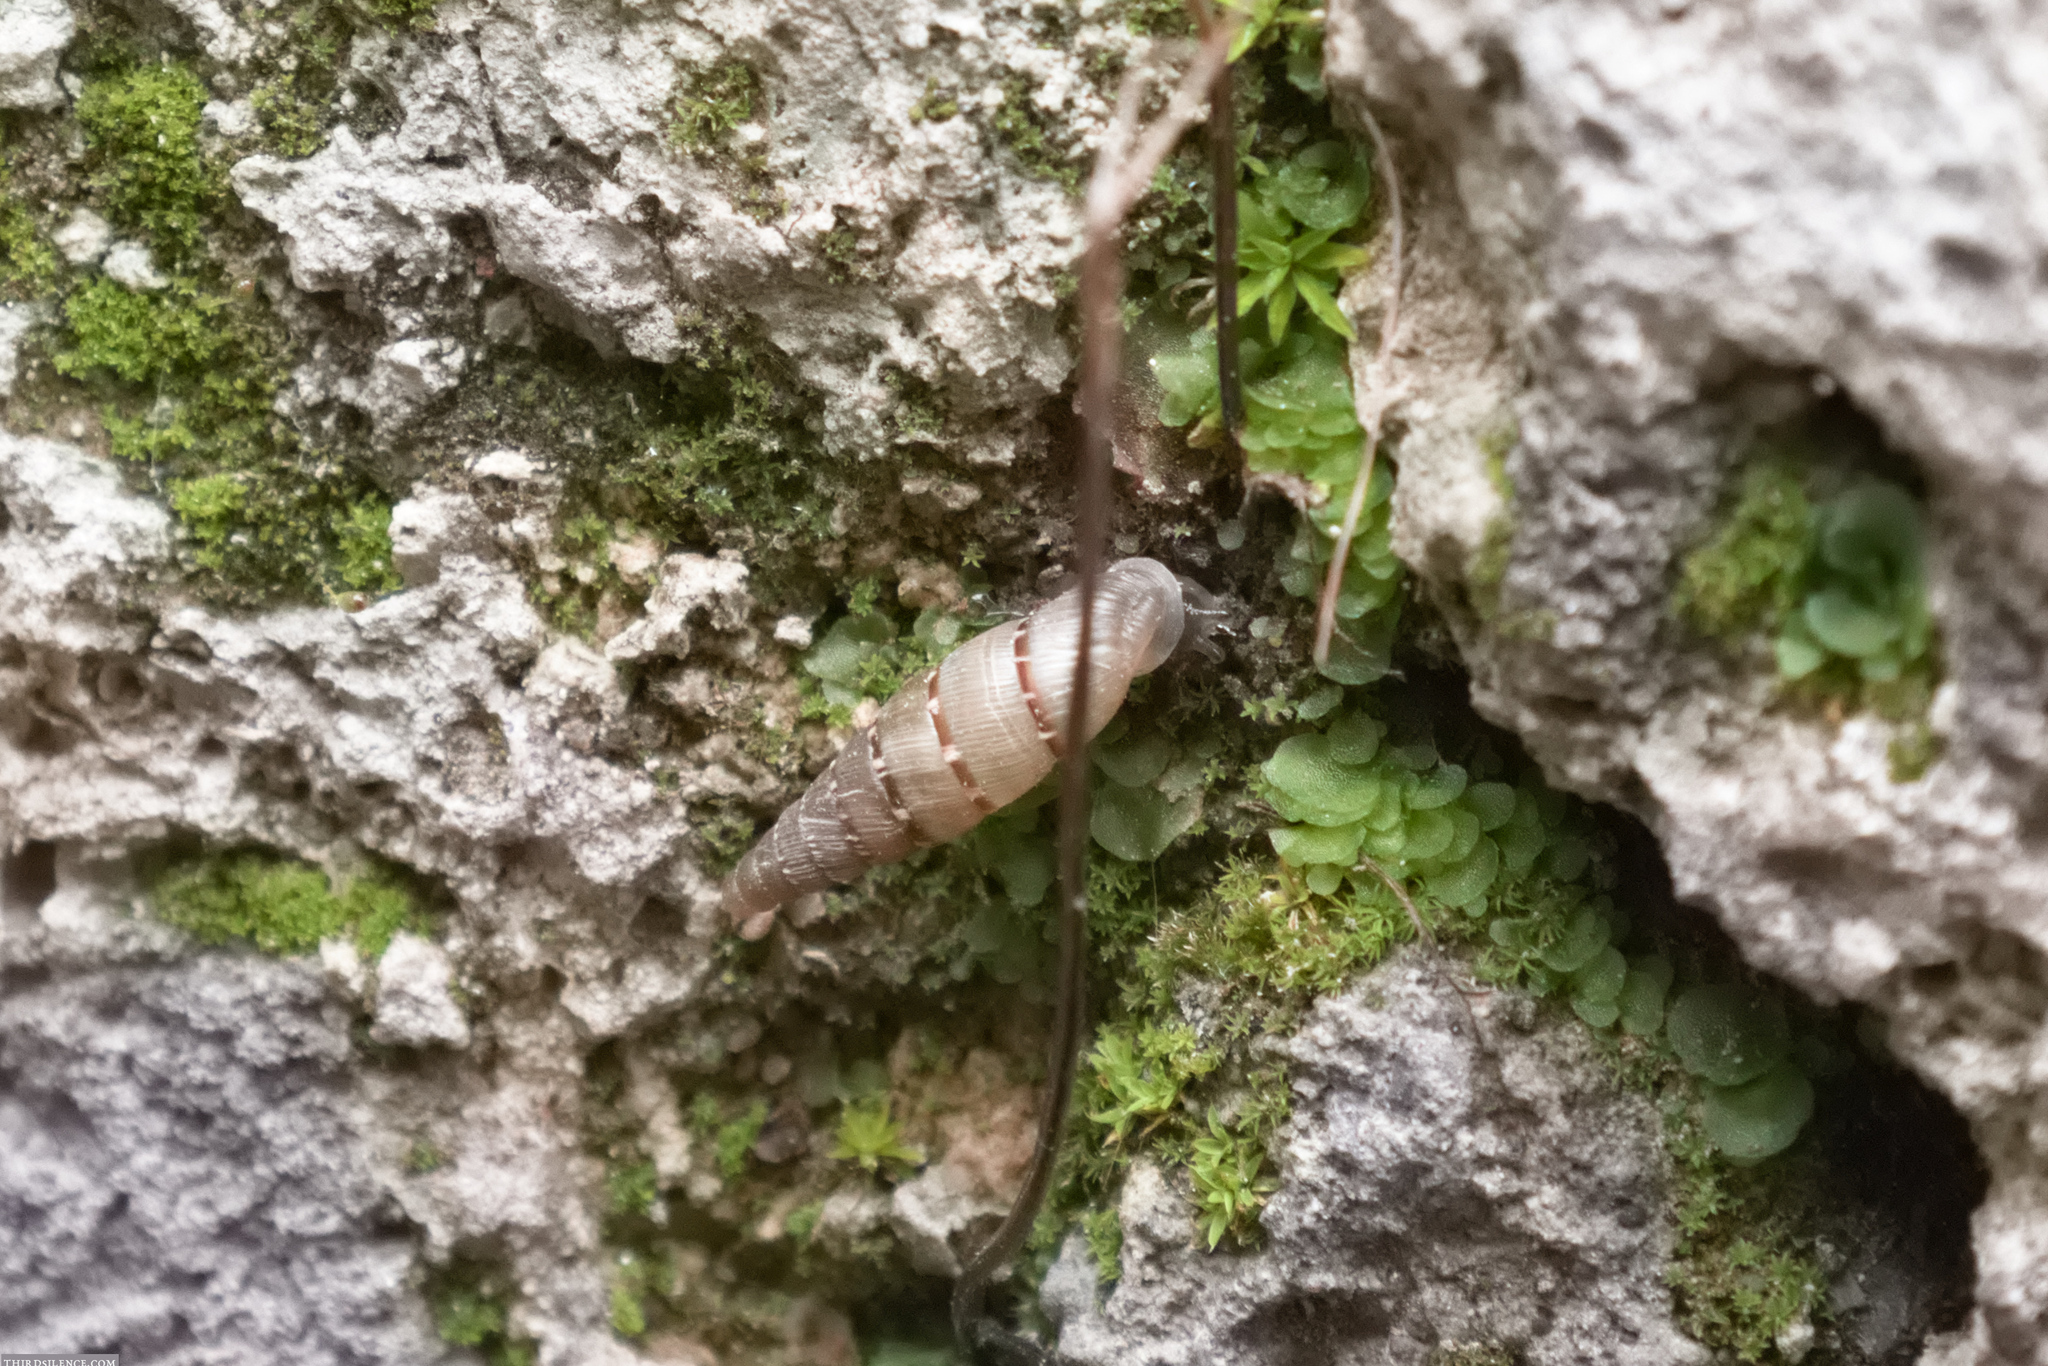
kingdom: Animalia
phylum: Mollusca
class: Gastropoda
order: Stylommatophora
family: Clausiliidae
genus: Papillifera
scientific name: Papillifera papillaris
